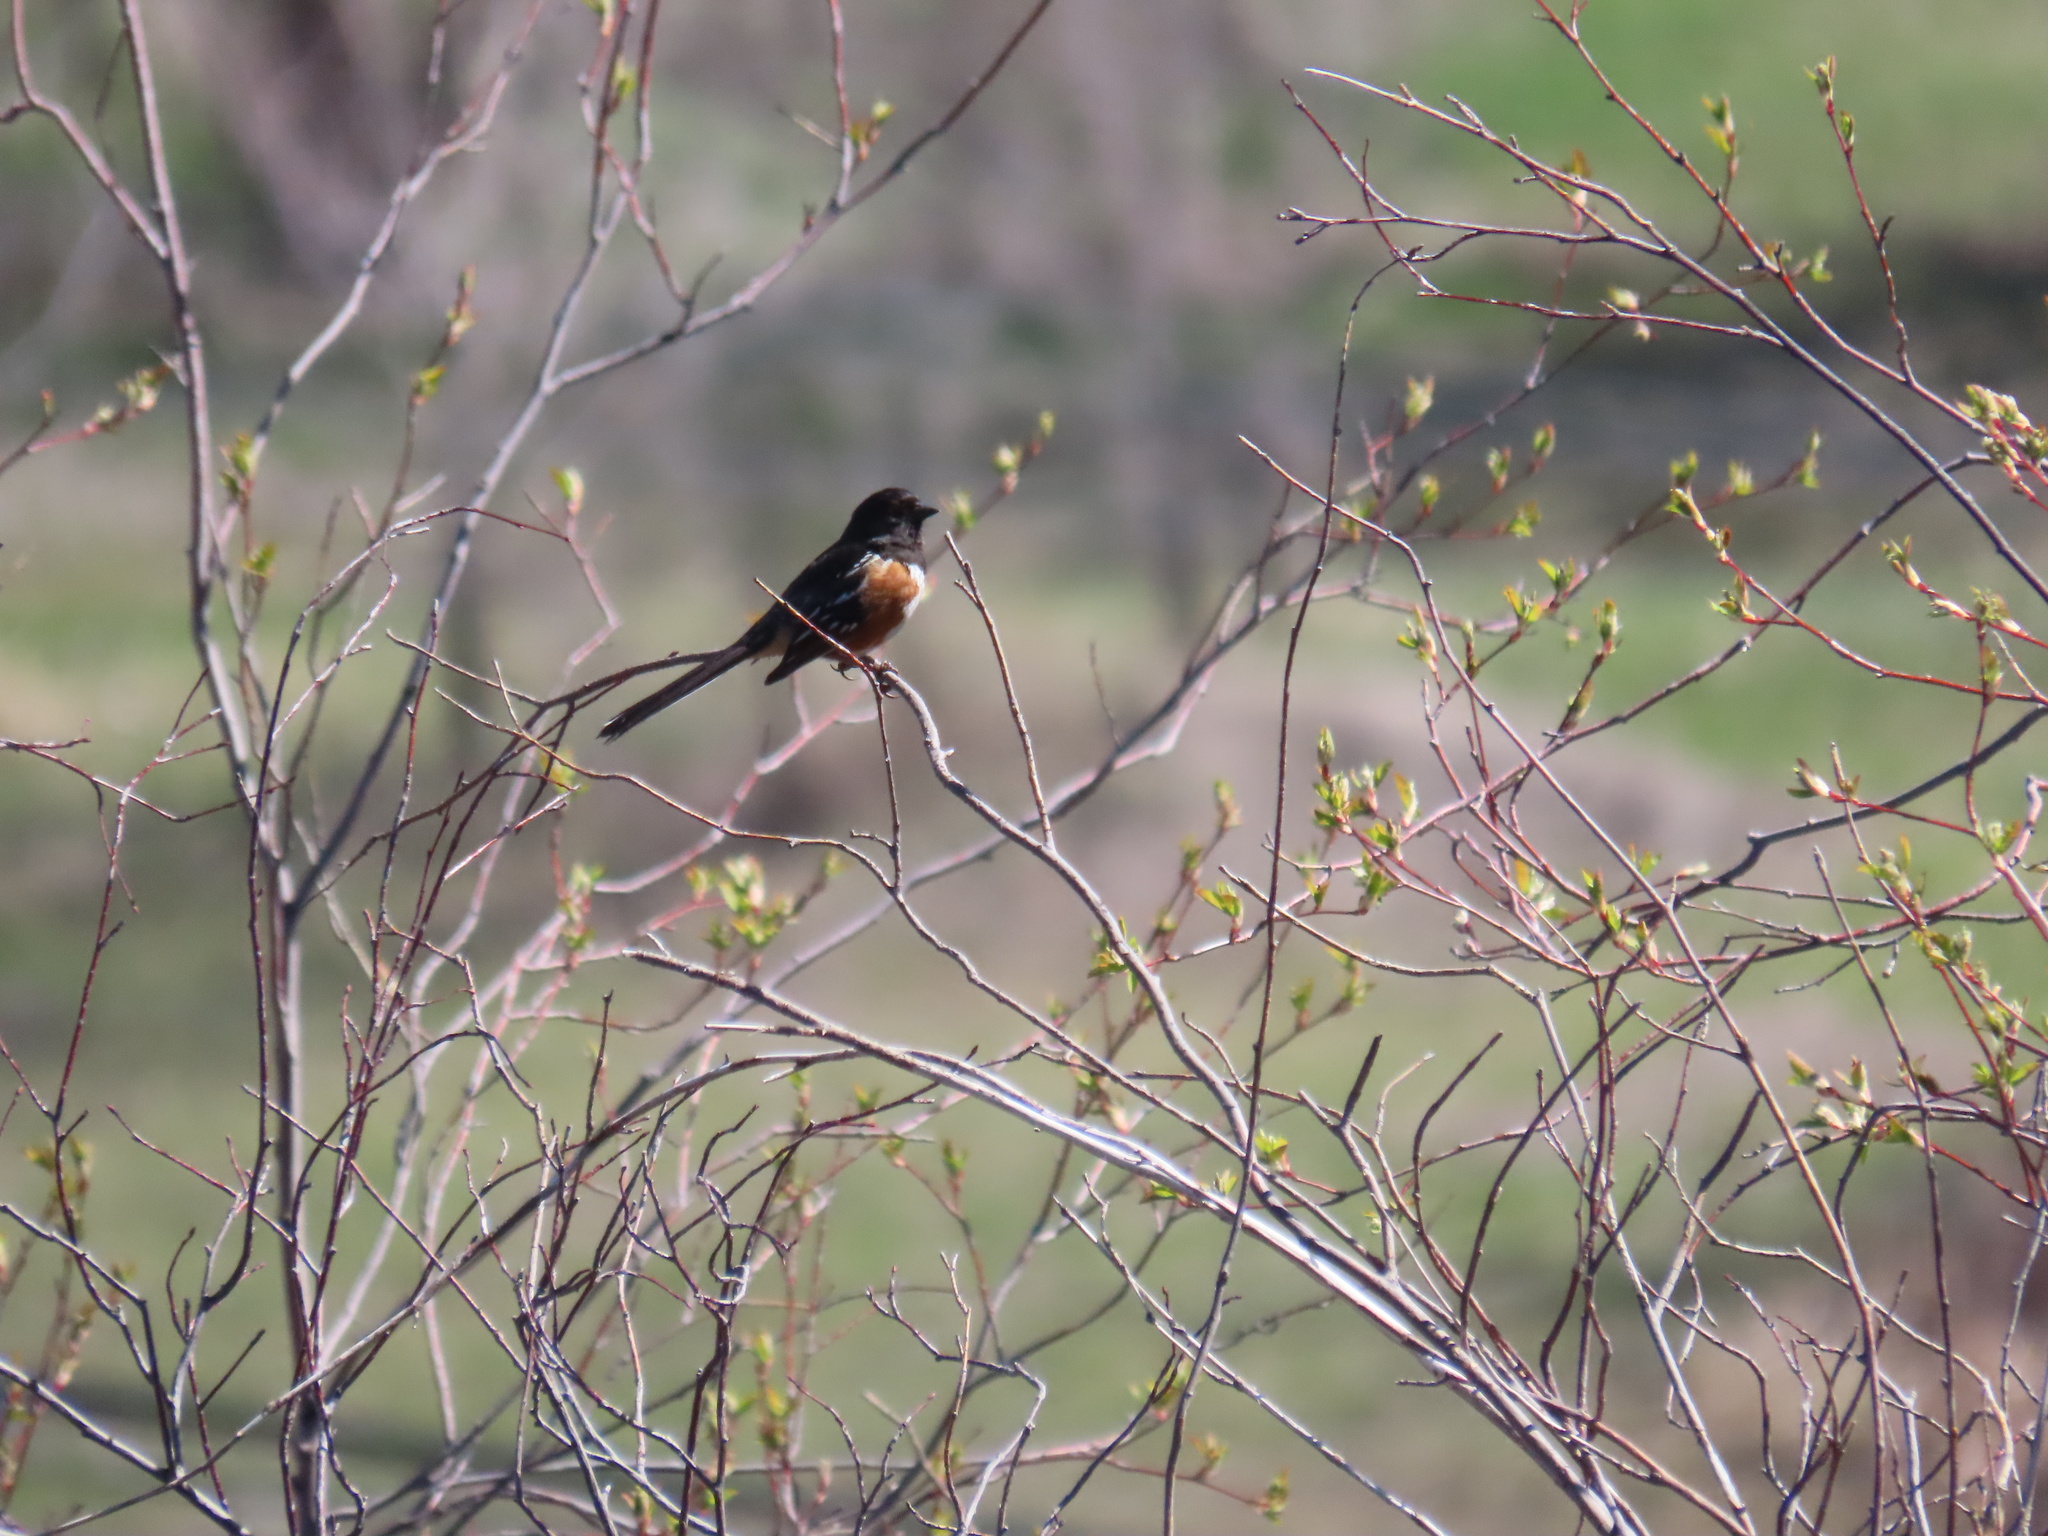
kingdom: Animalia
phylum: Chordata
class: Aves
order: Passeriformes
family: Passerellidae
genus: Pipilo
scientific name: Pipilo maculatus
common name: Spotted towhee
